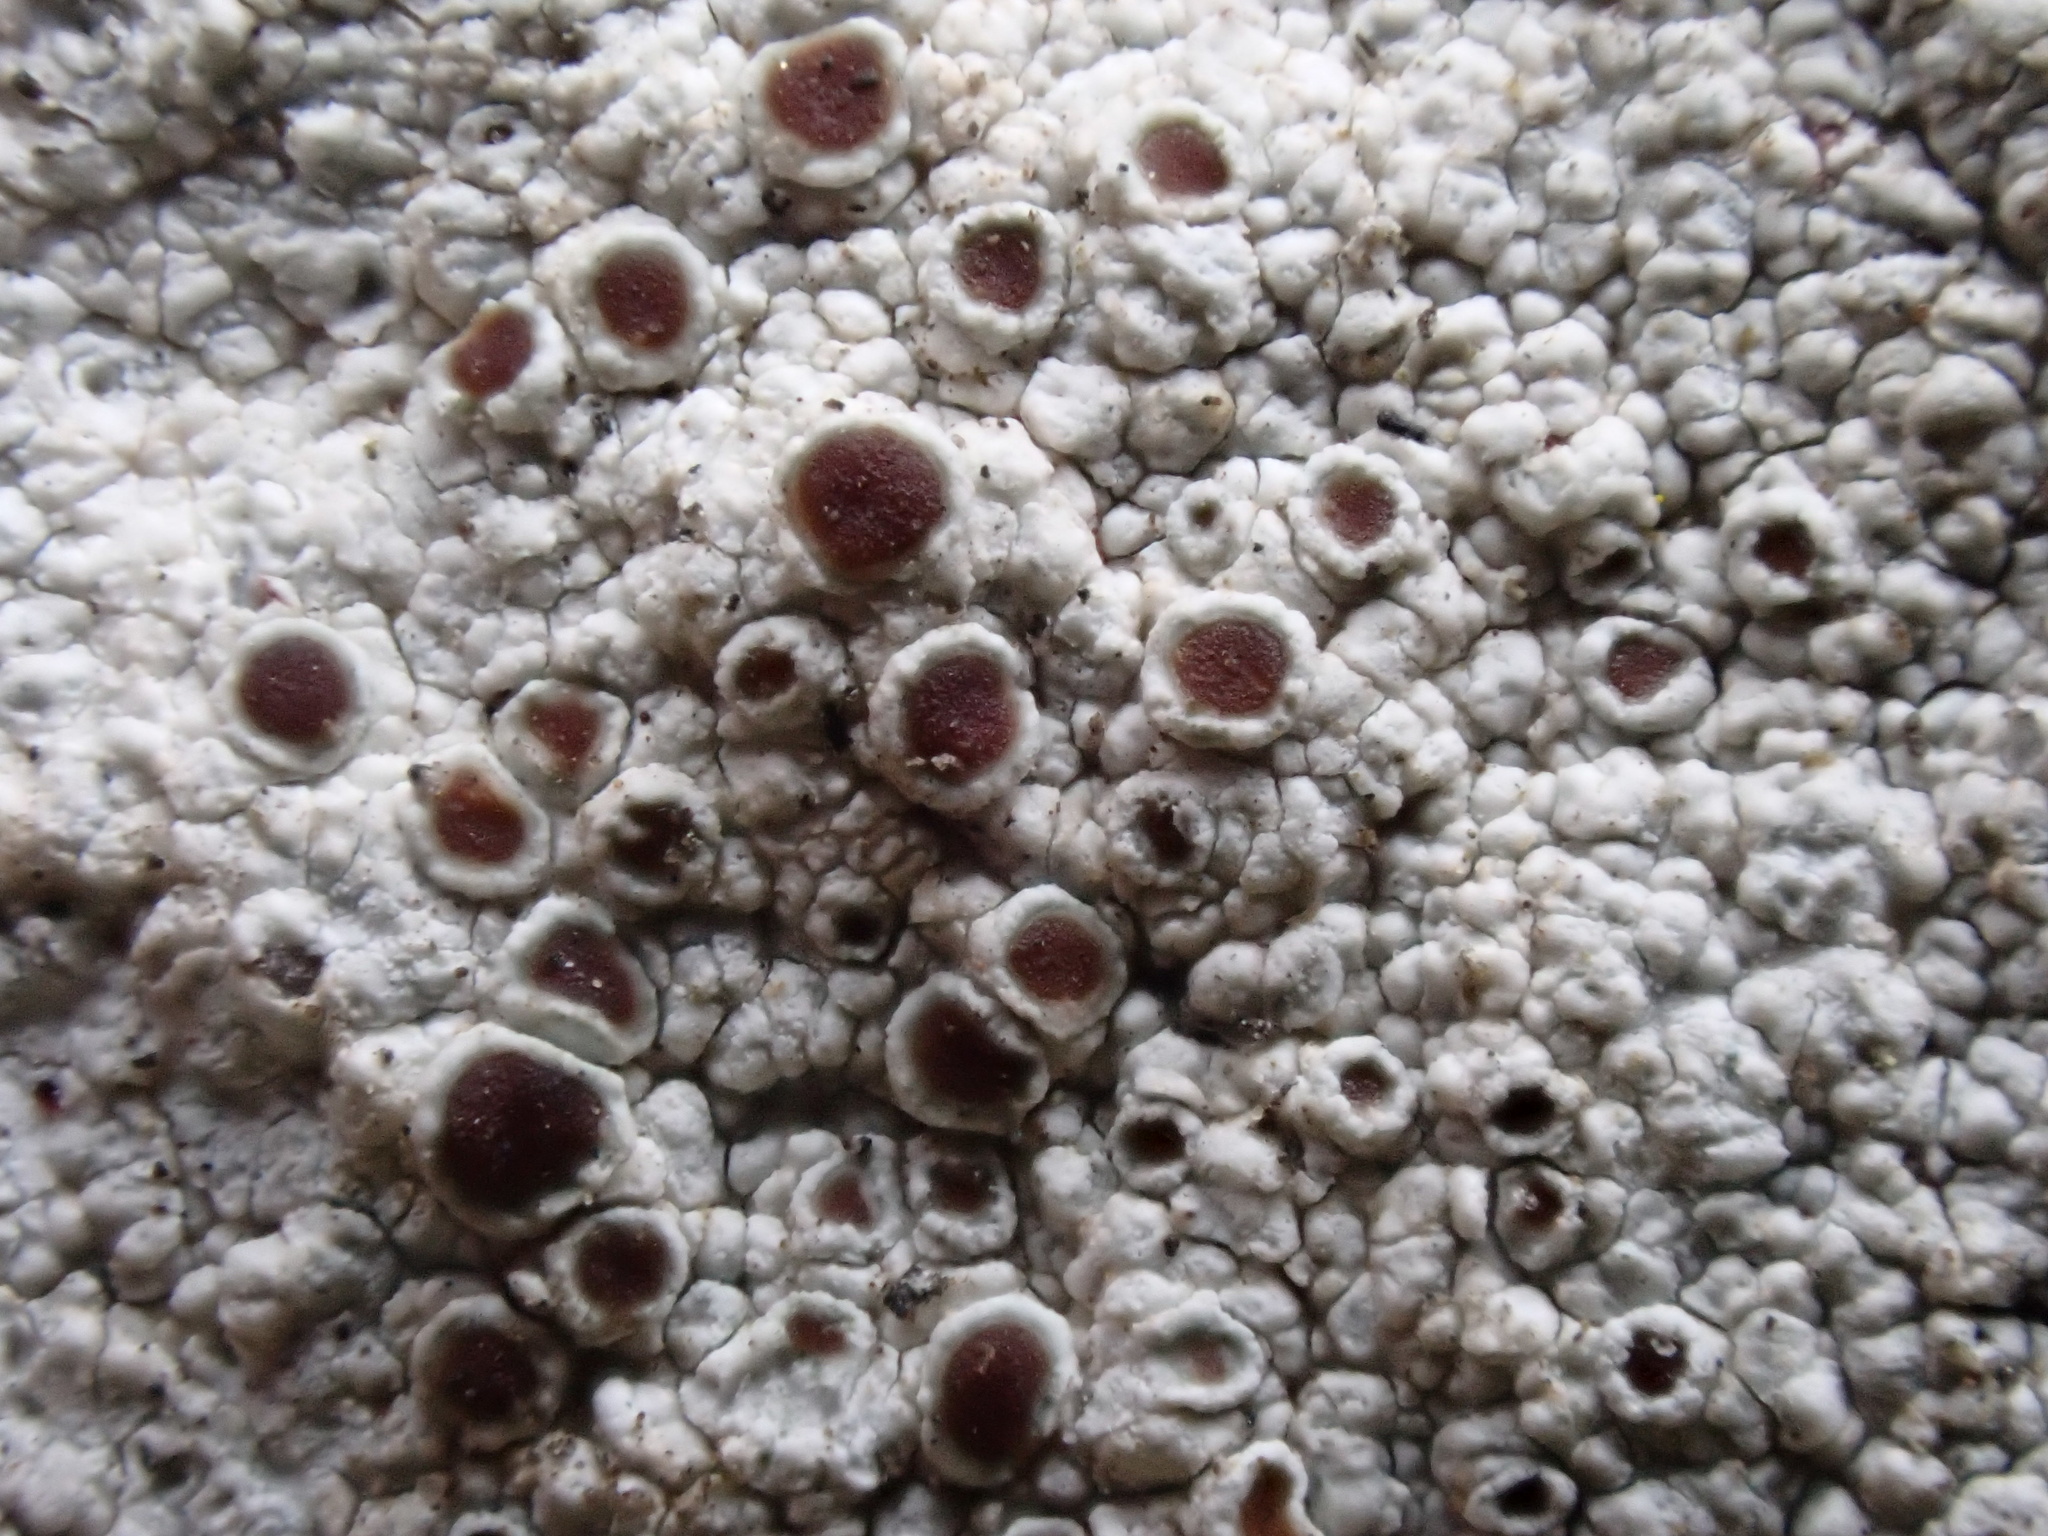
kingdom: Fungi
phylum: Ascomycota
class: Lecanoromycetes
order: Lecanorales
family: Lecanoraceae
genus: Lecanora
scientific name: Lecanora campestris
